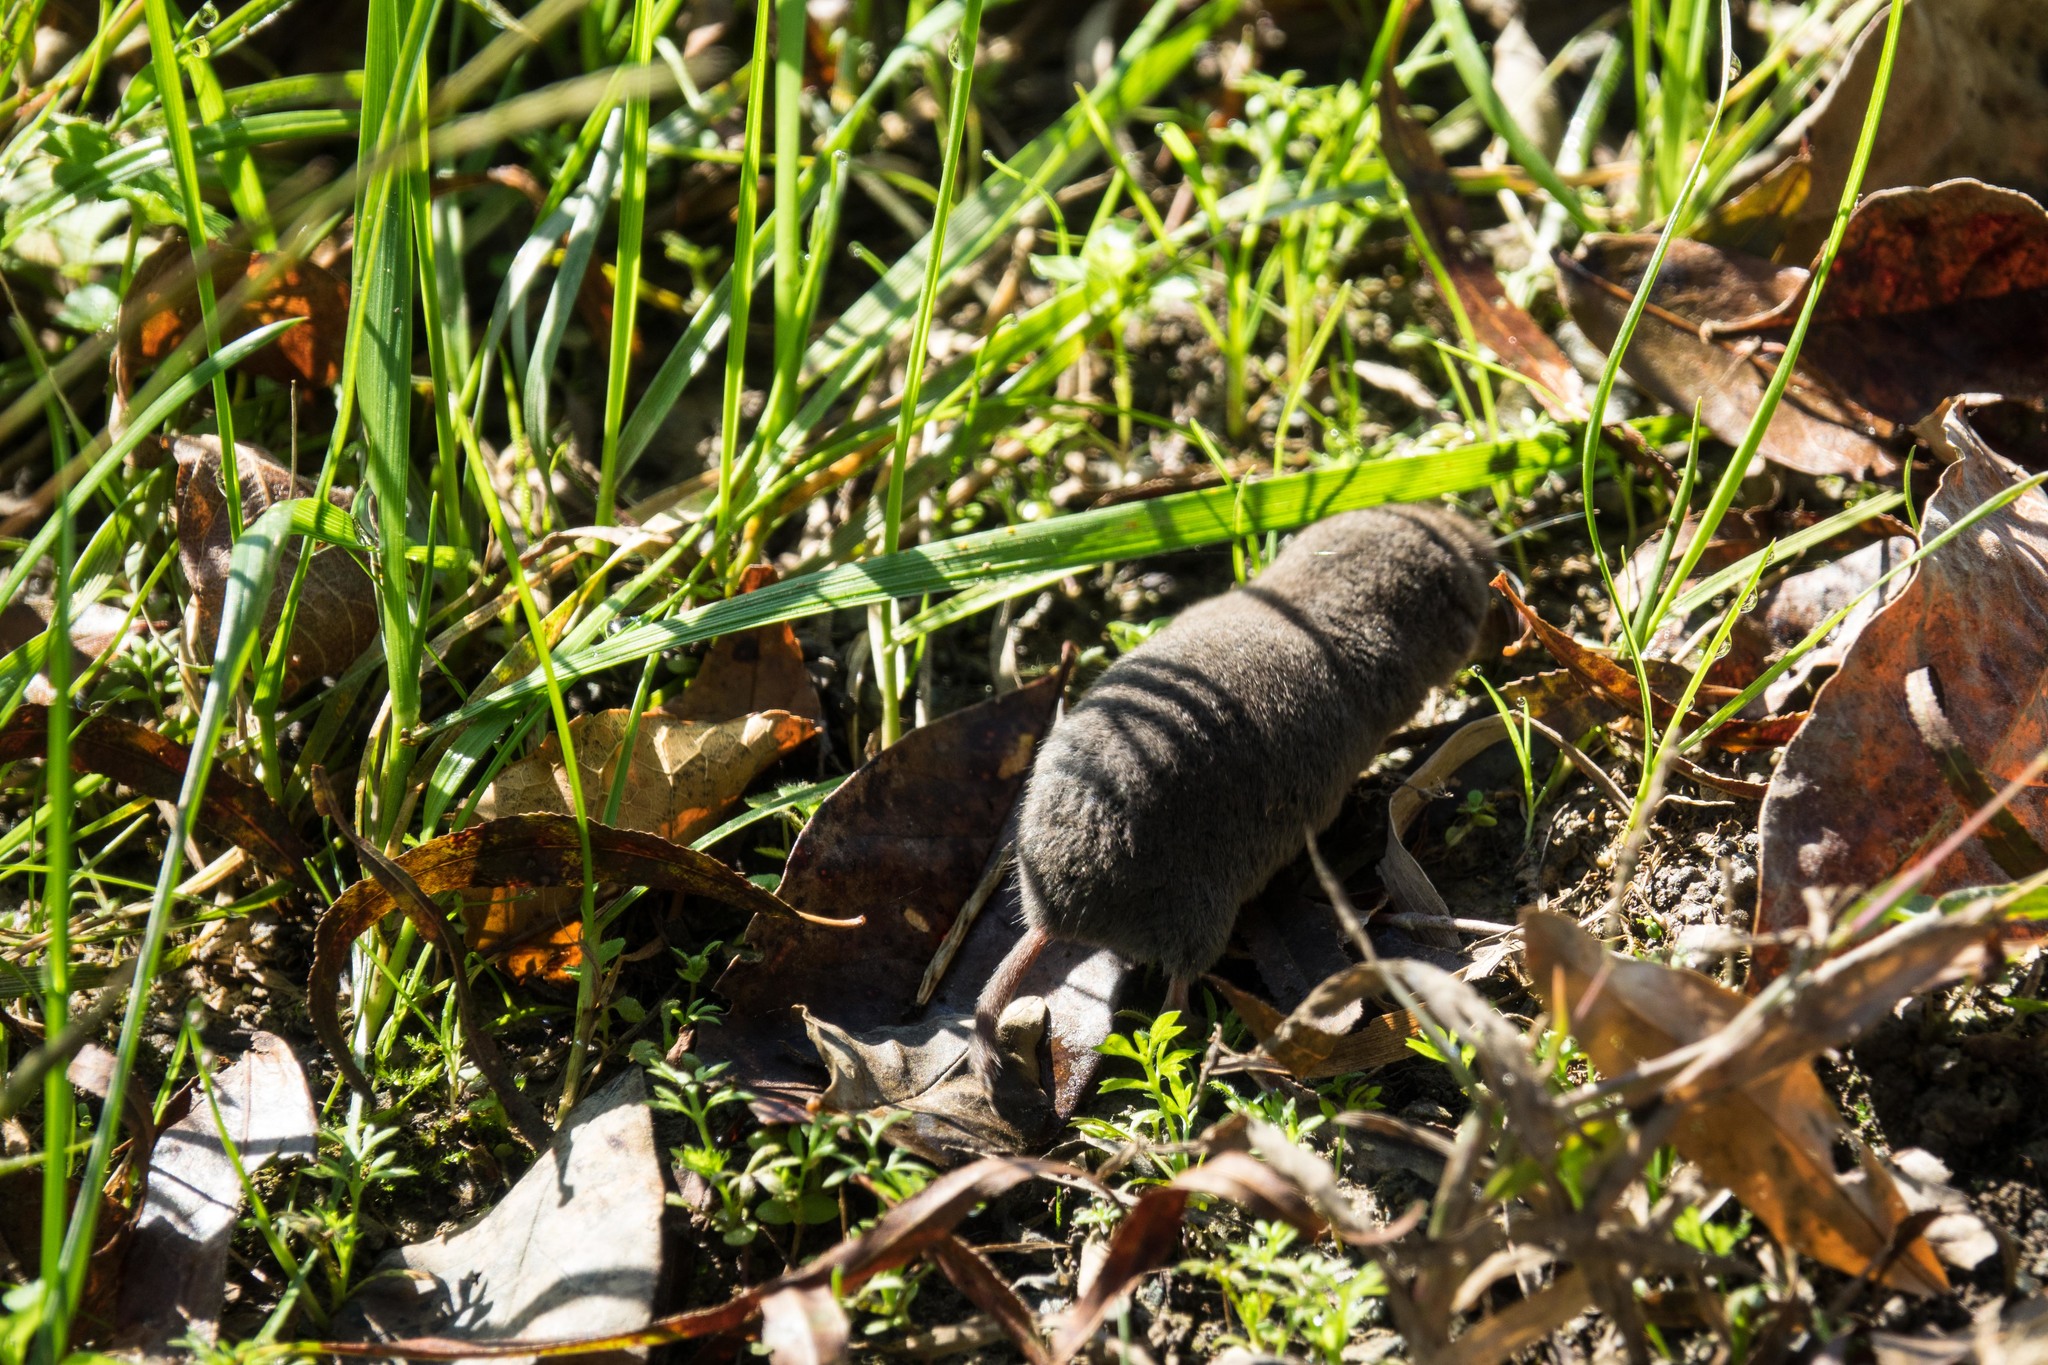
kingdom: Animalia
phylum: Chordata
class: Mammalia
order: Soricomorpha
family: Soricidae
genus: Blarina
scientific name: Blarina carolinensis
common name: Southern short-tailed shrew
